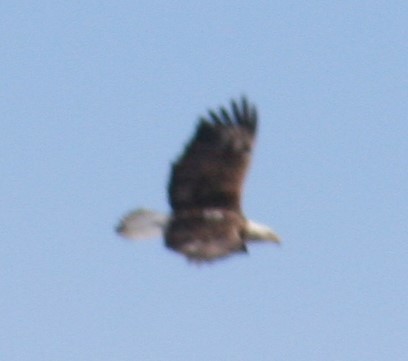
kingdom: Animalia
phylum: Chordata
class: Aves
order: Accipitriformes
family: Accipitridae
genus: Haliaeetus
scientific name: Haliaeetus leucocephalus
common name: Bald eagle
